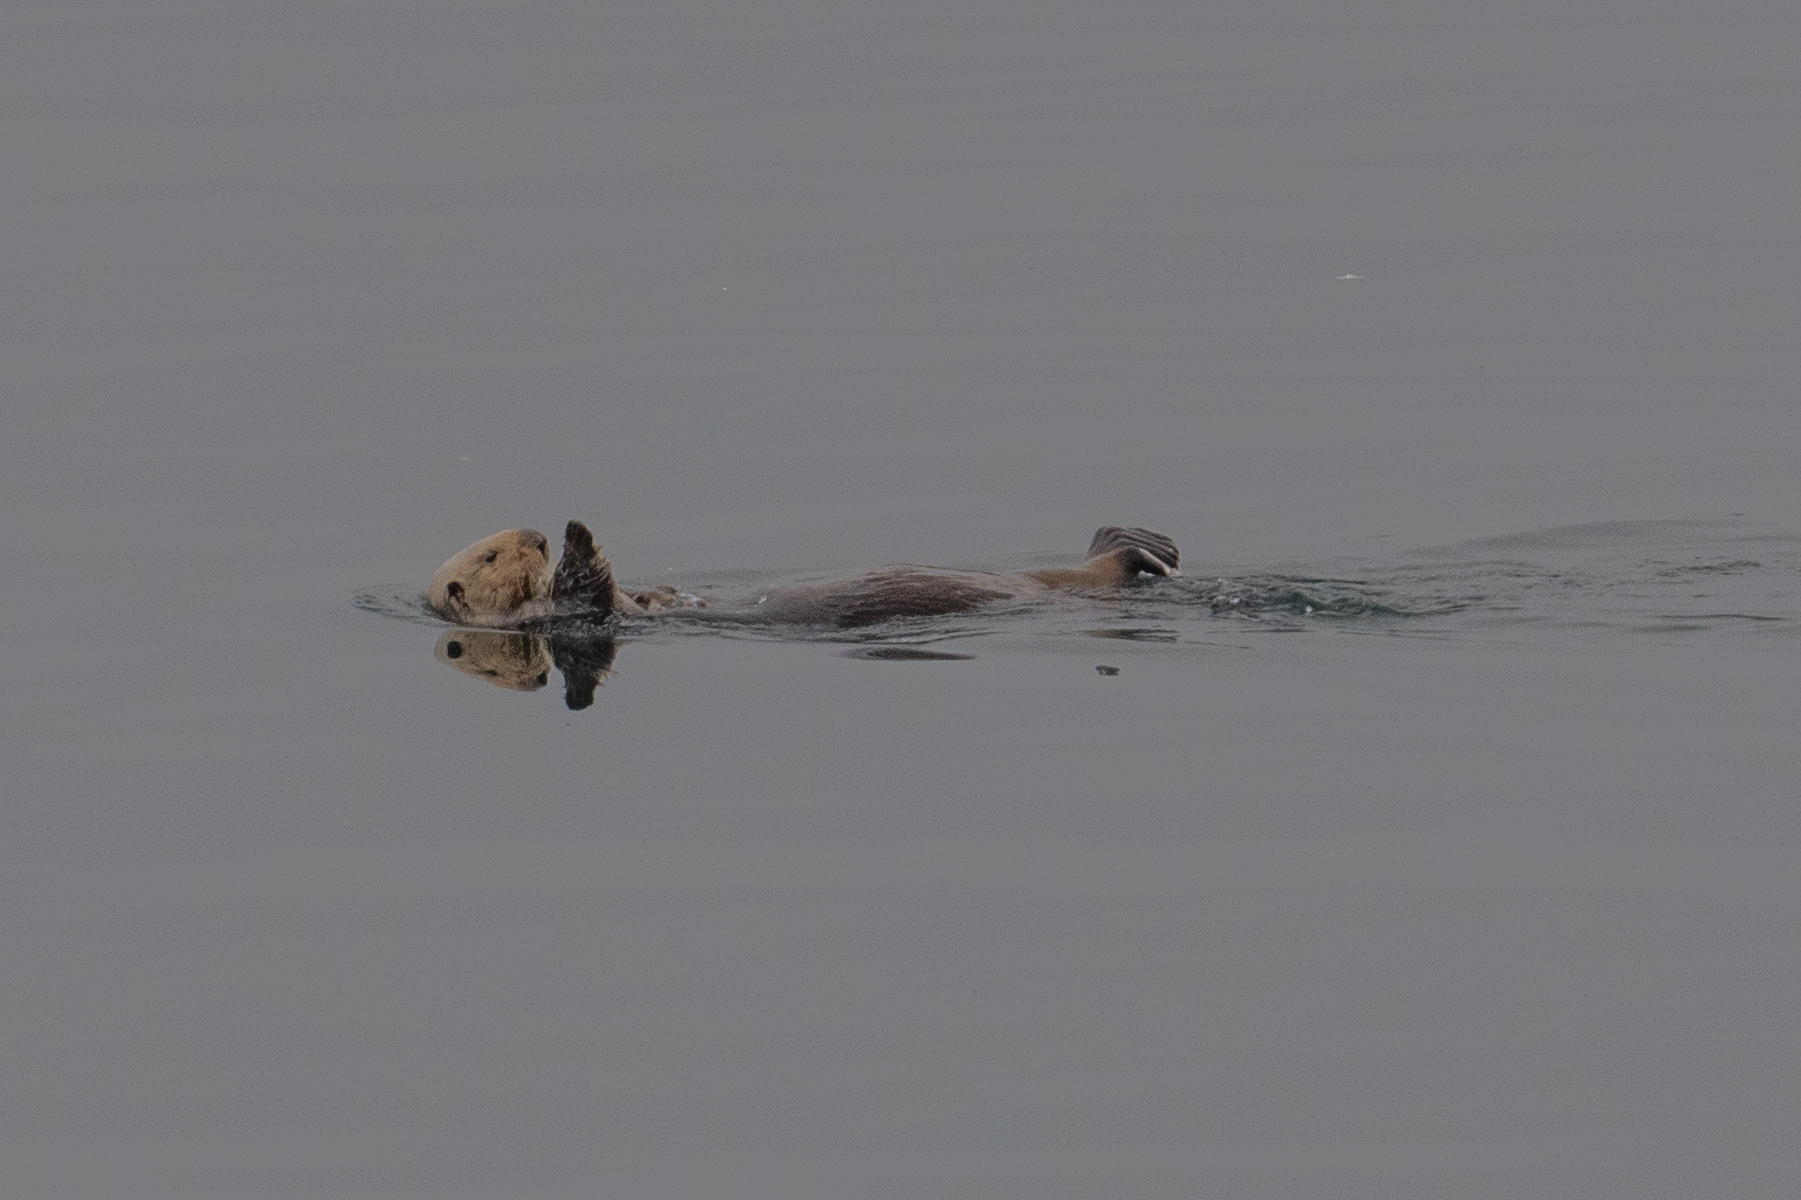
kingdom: Animalia
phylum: Chordata
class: Mammalia
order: Carnivora
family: Mustelidae
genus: Enhydra
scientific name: Enhydra lutris
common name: Sea otter
